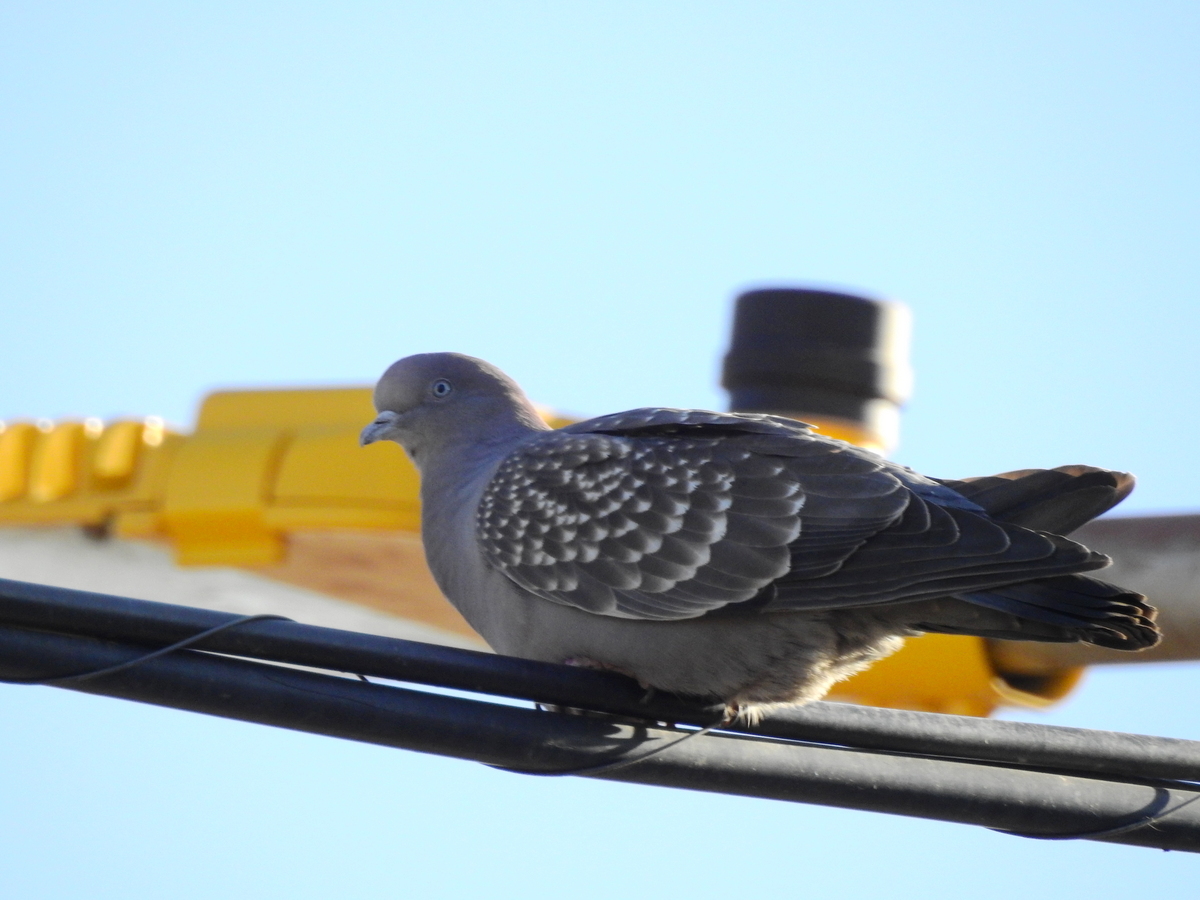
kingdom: Animalia
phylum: Chordata
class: Aves
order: Columbiformes
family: Columbidae
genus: Patagioenas
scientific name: Patagioenas maculosa
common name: Spot-winged pigeon
